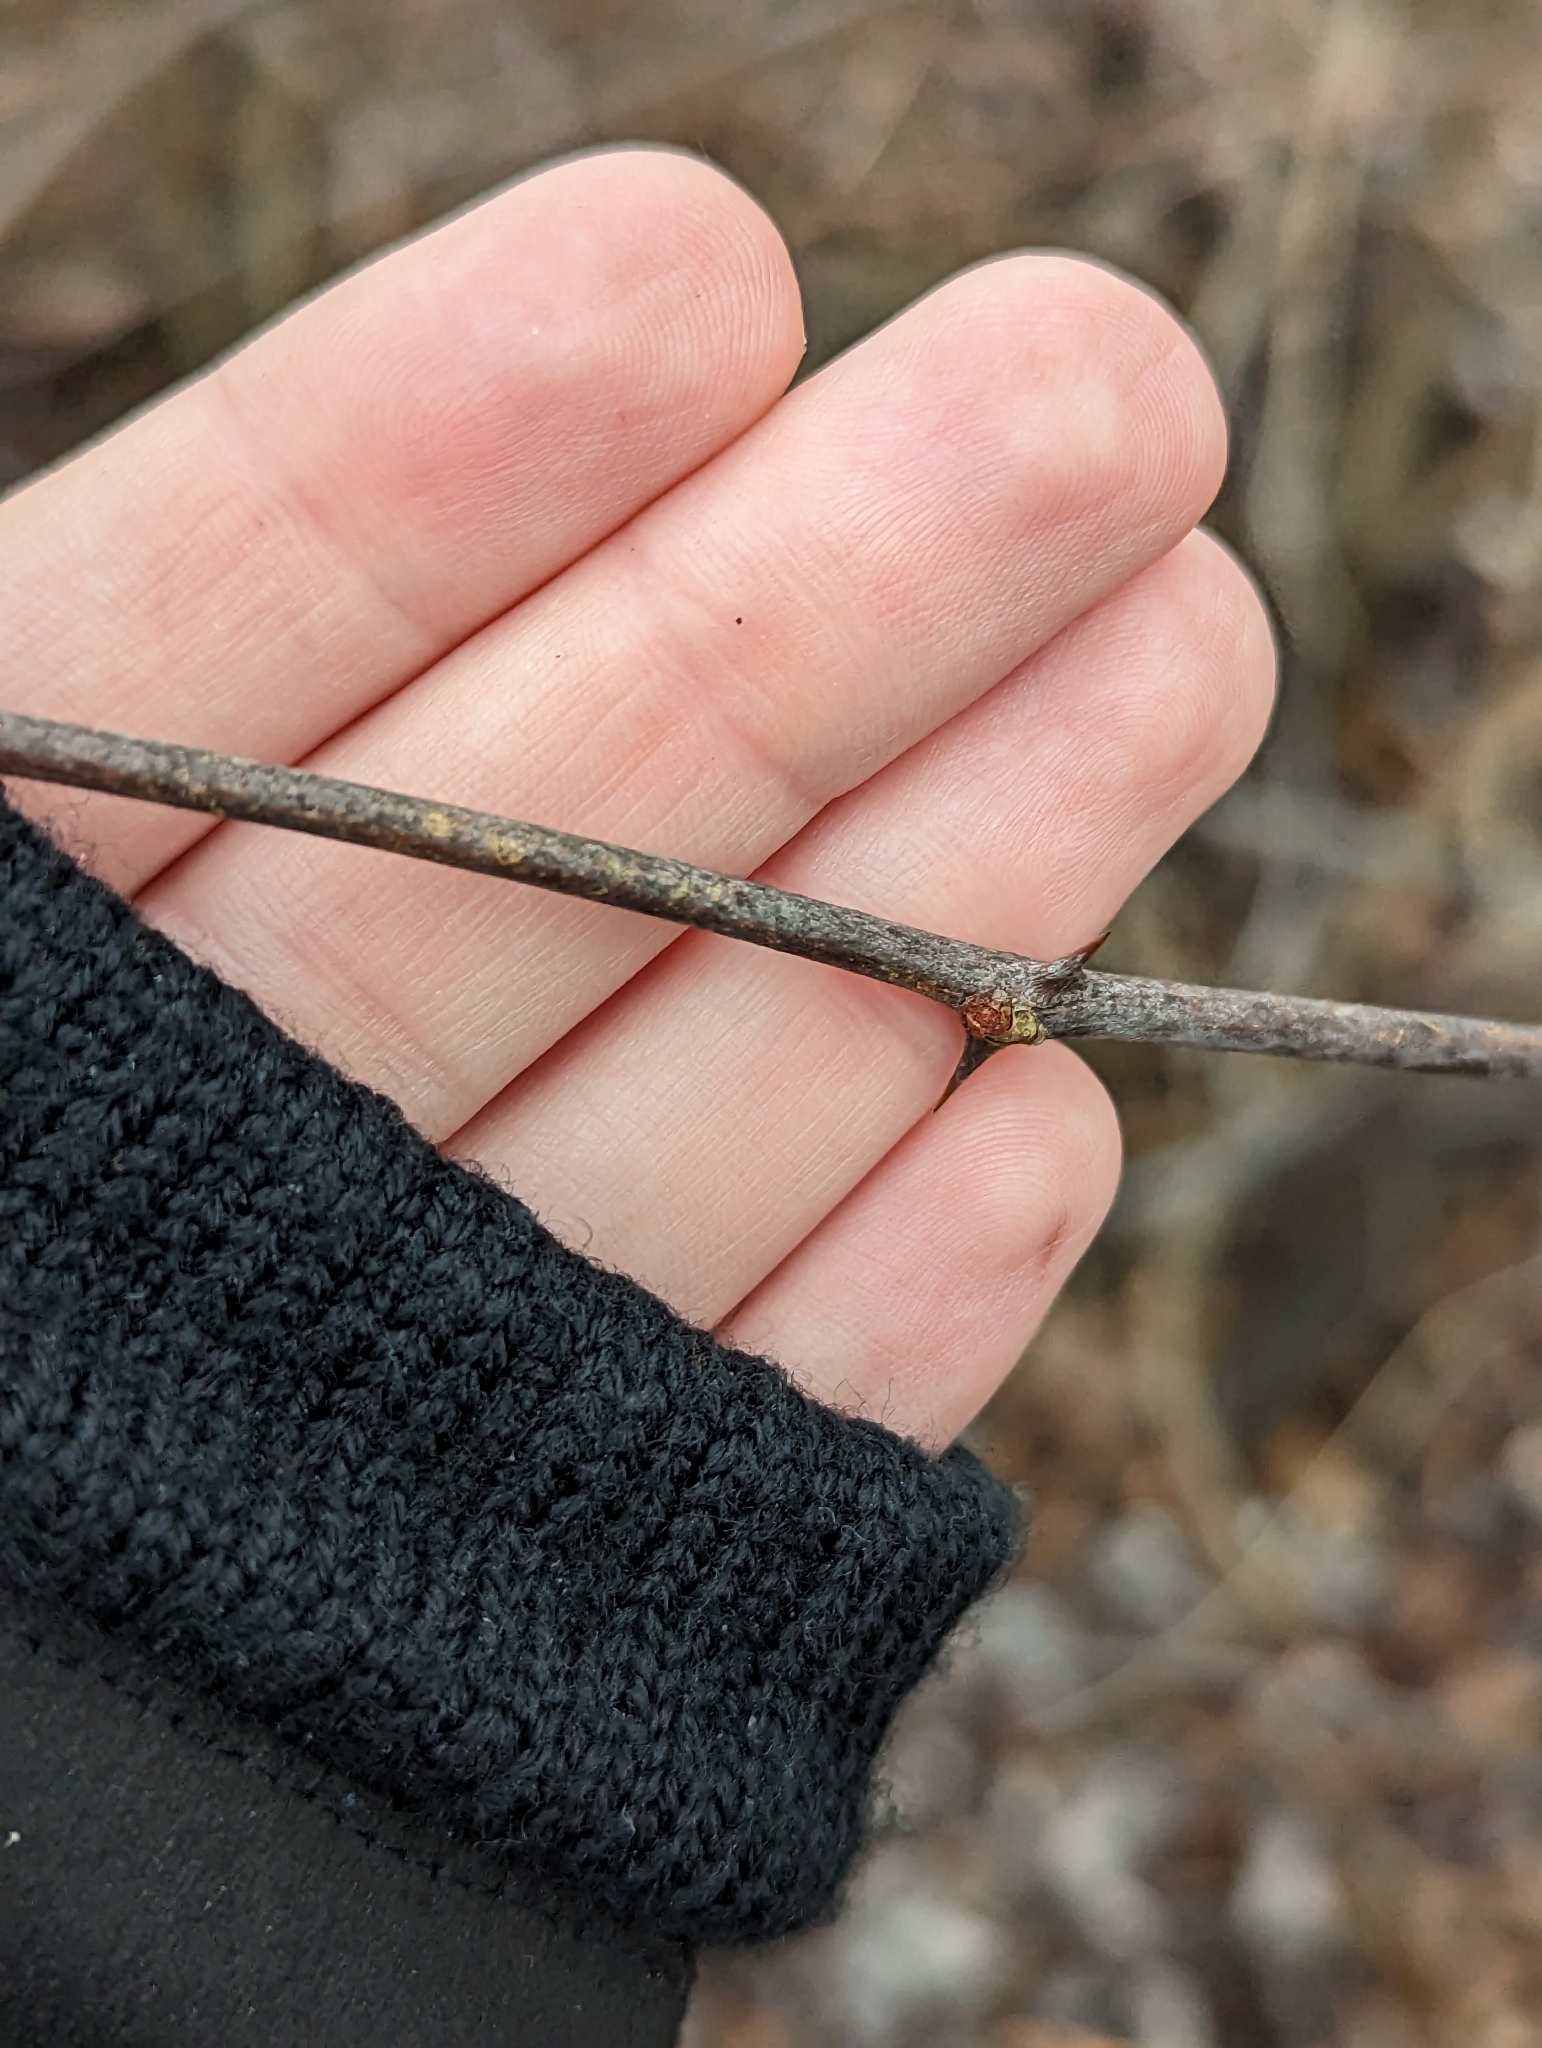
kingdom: Plantae
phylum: Tracheophyta
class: Magnoliopsida
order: Sapindales
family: Rutaceae
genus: Zanthoxylum
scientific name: Zanthoxylum americanum
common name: Northern prickly-ash
